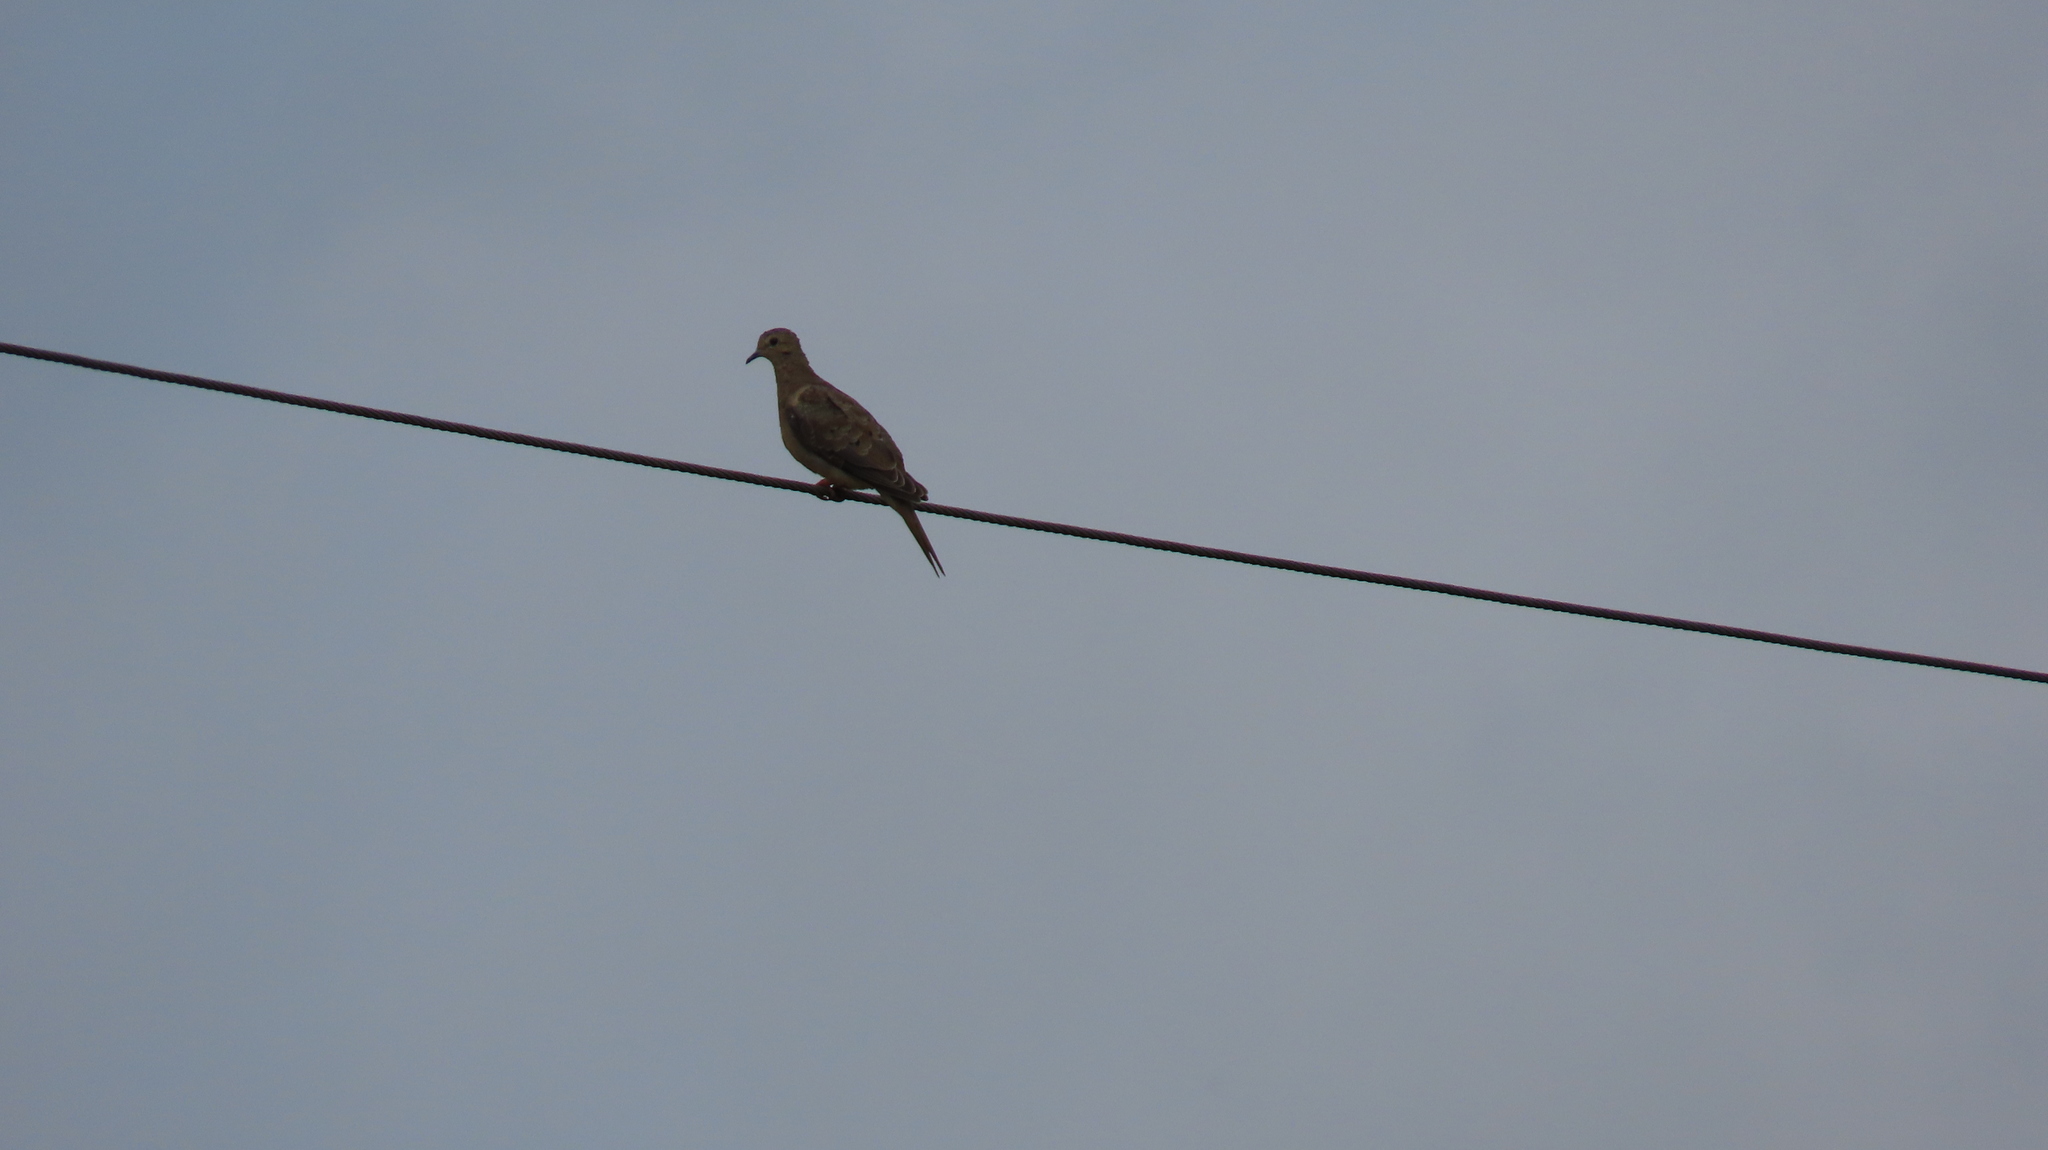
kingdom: Animalia
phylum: Chordata
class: Aves
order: Columbiformes
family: Columbidae
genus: Zenaida
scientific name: Zenaida macroura
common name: Mourning dove
